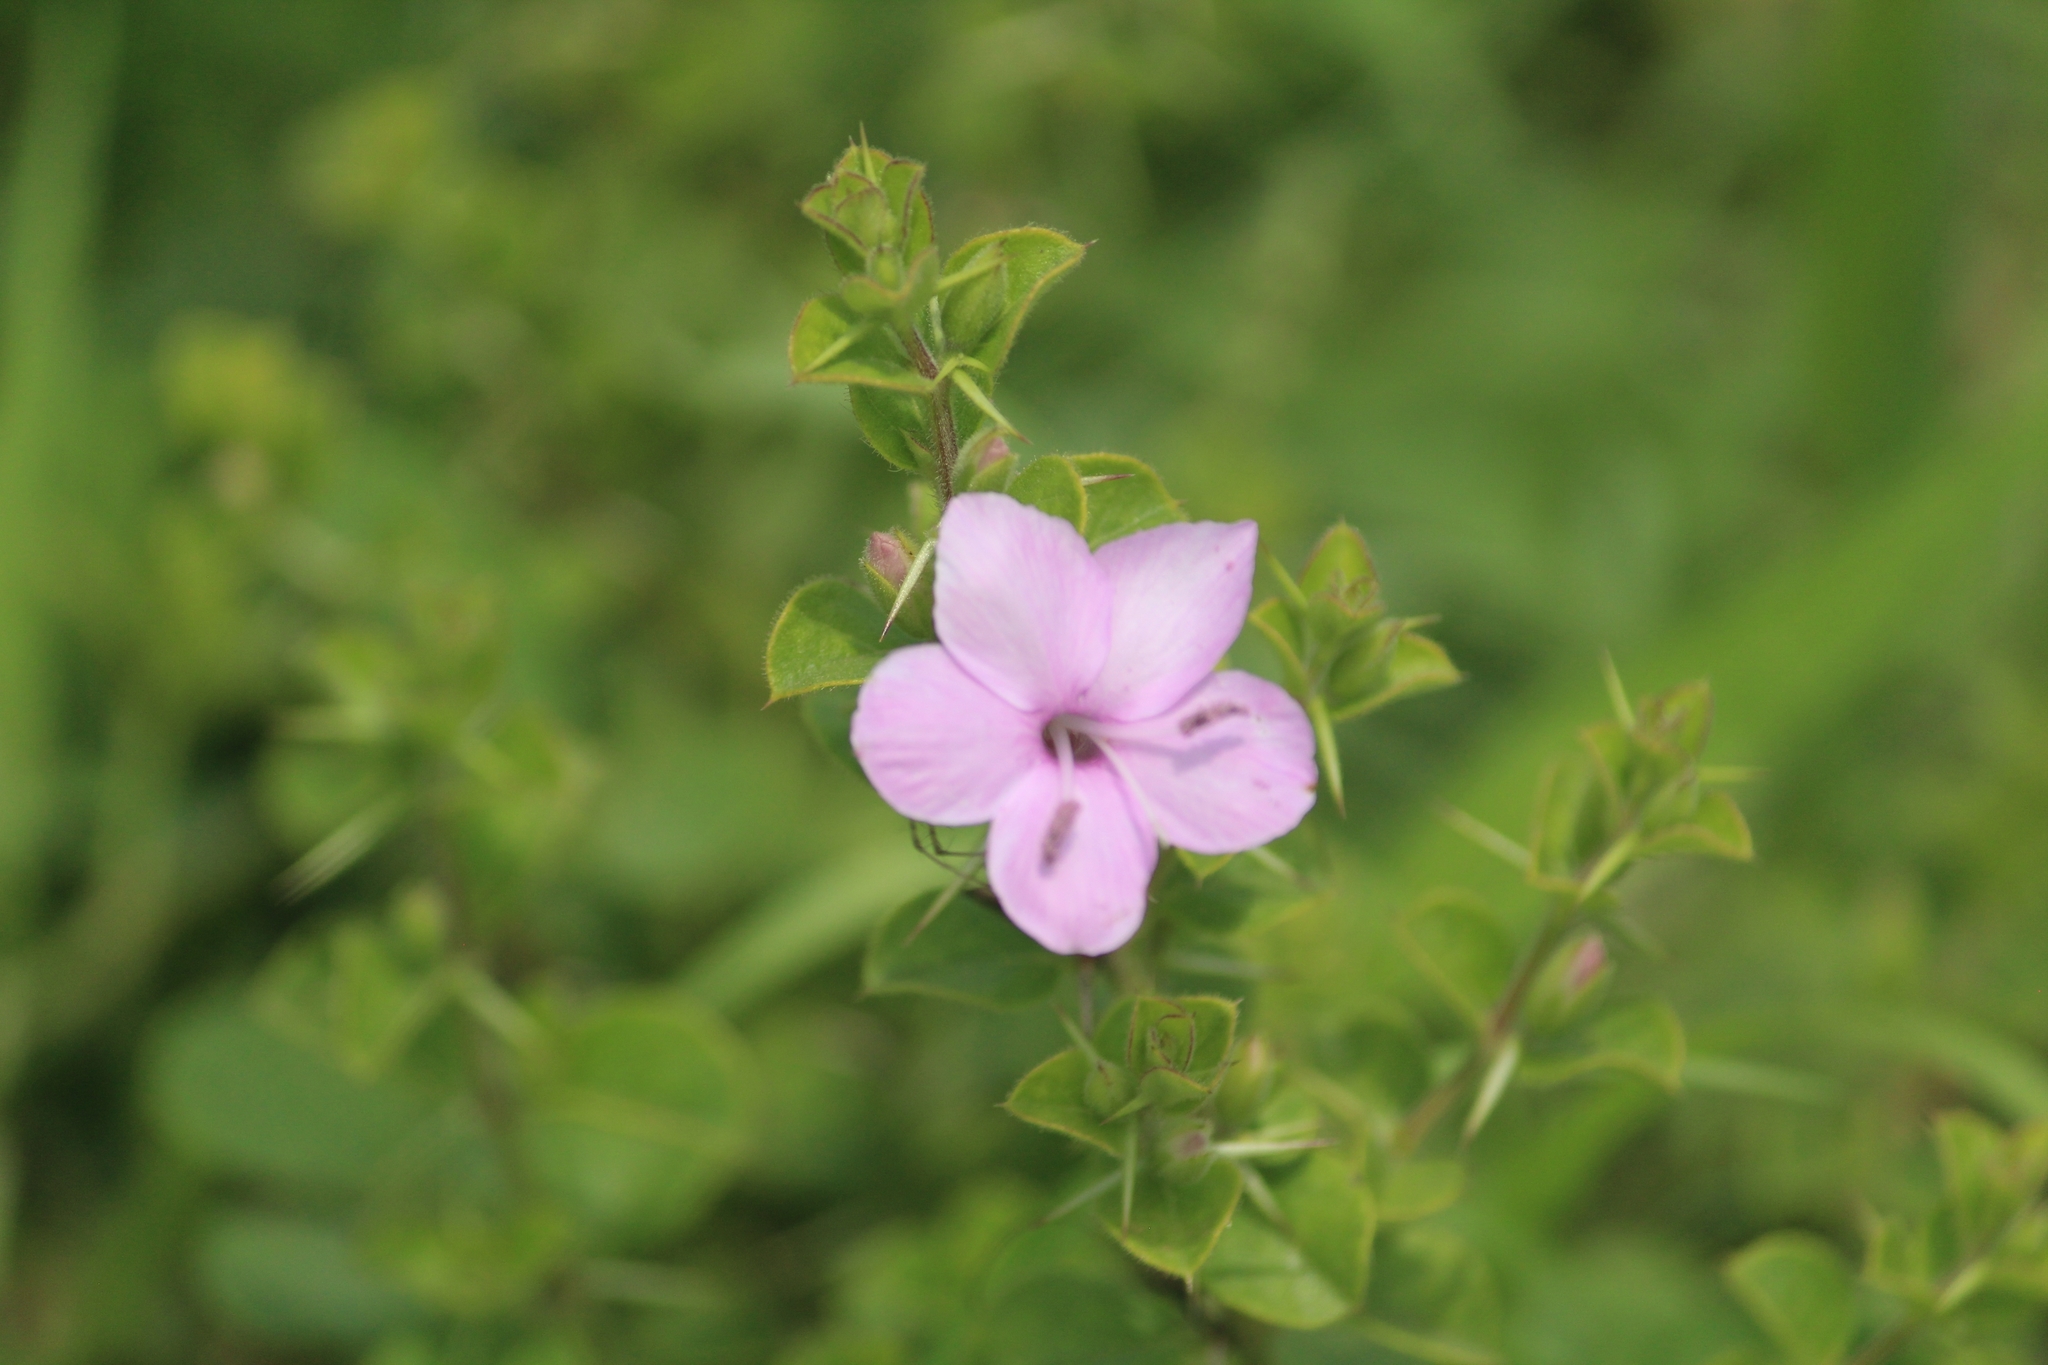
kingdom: Plantae
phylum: Tracheophyta
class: Magnoliopsida
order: Lamiales
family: Acanthaceae
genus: Barleria
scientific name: Barleria mysorensis
